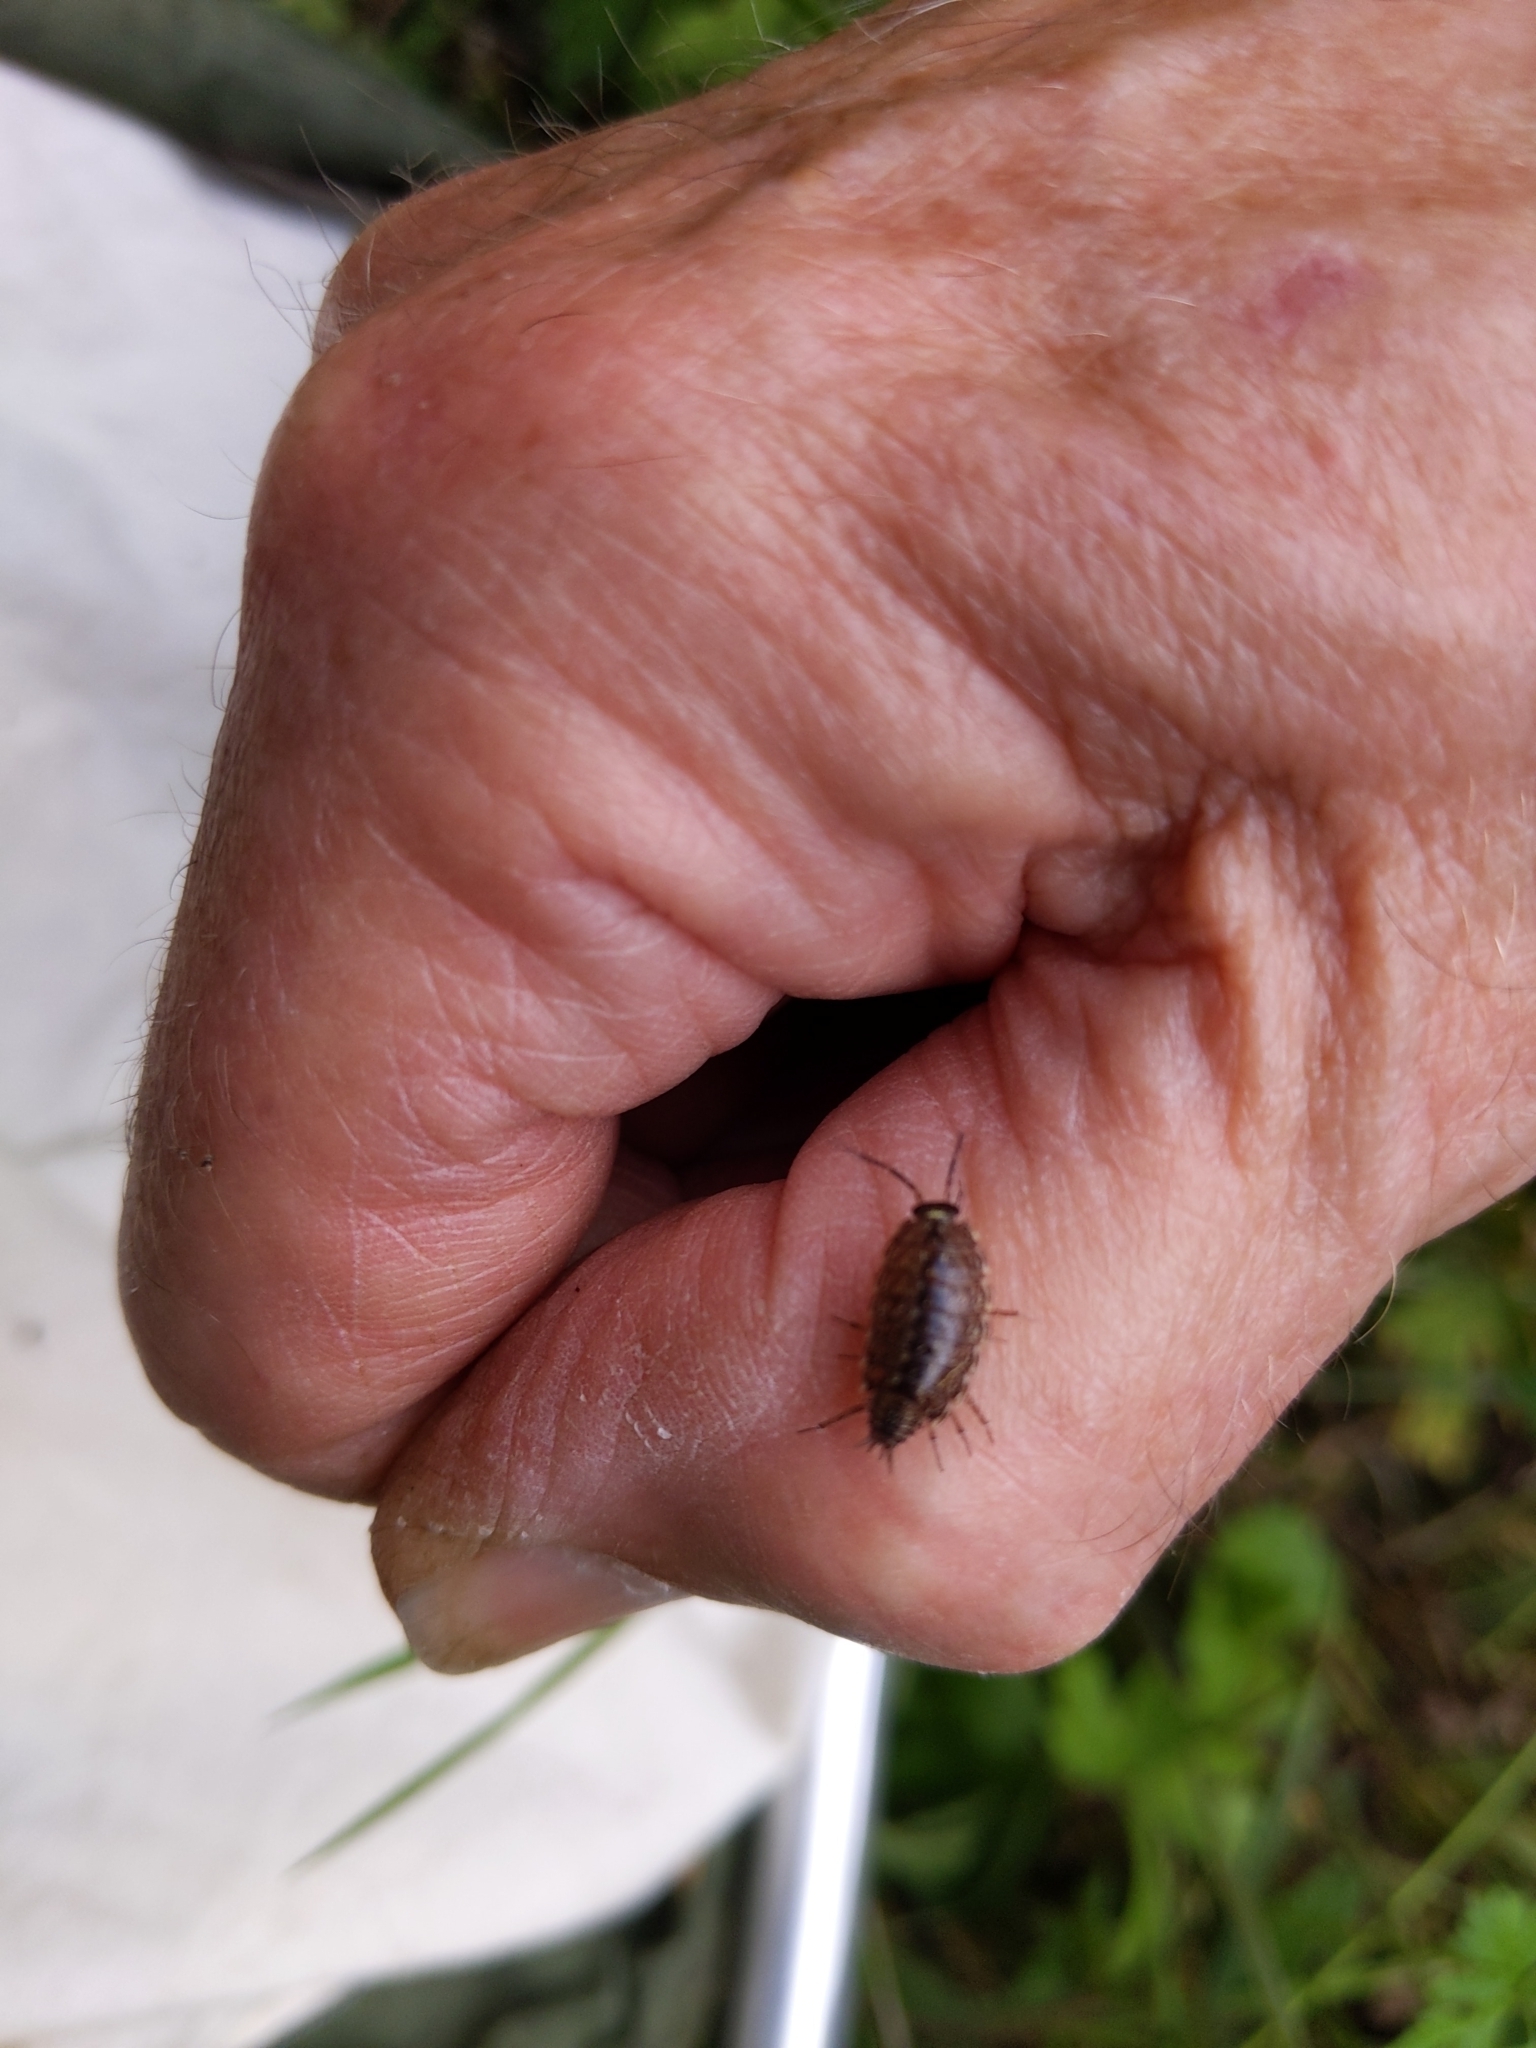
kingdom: Animalia
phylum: Arthropoda
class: Malacostraca
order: Isopoda
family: Philosciidae
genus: Philoscia
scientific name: Philoscia muscorum
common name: Common striped woodlouse
